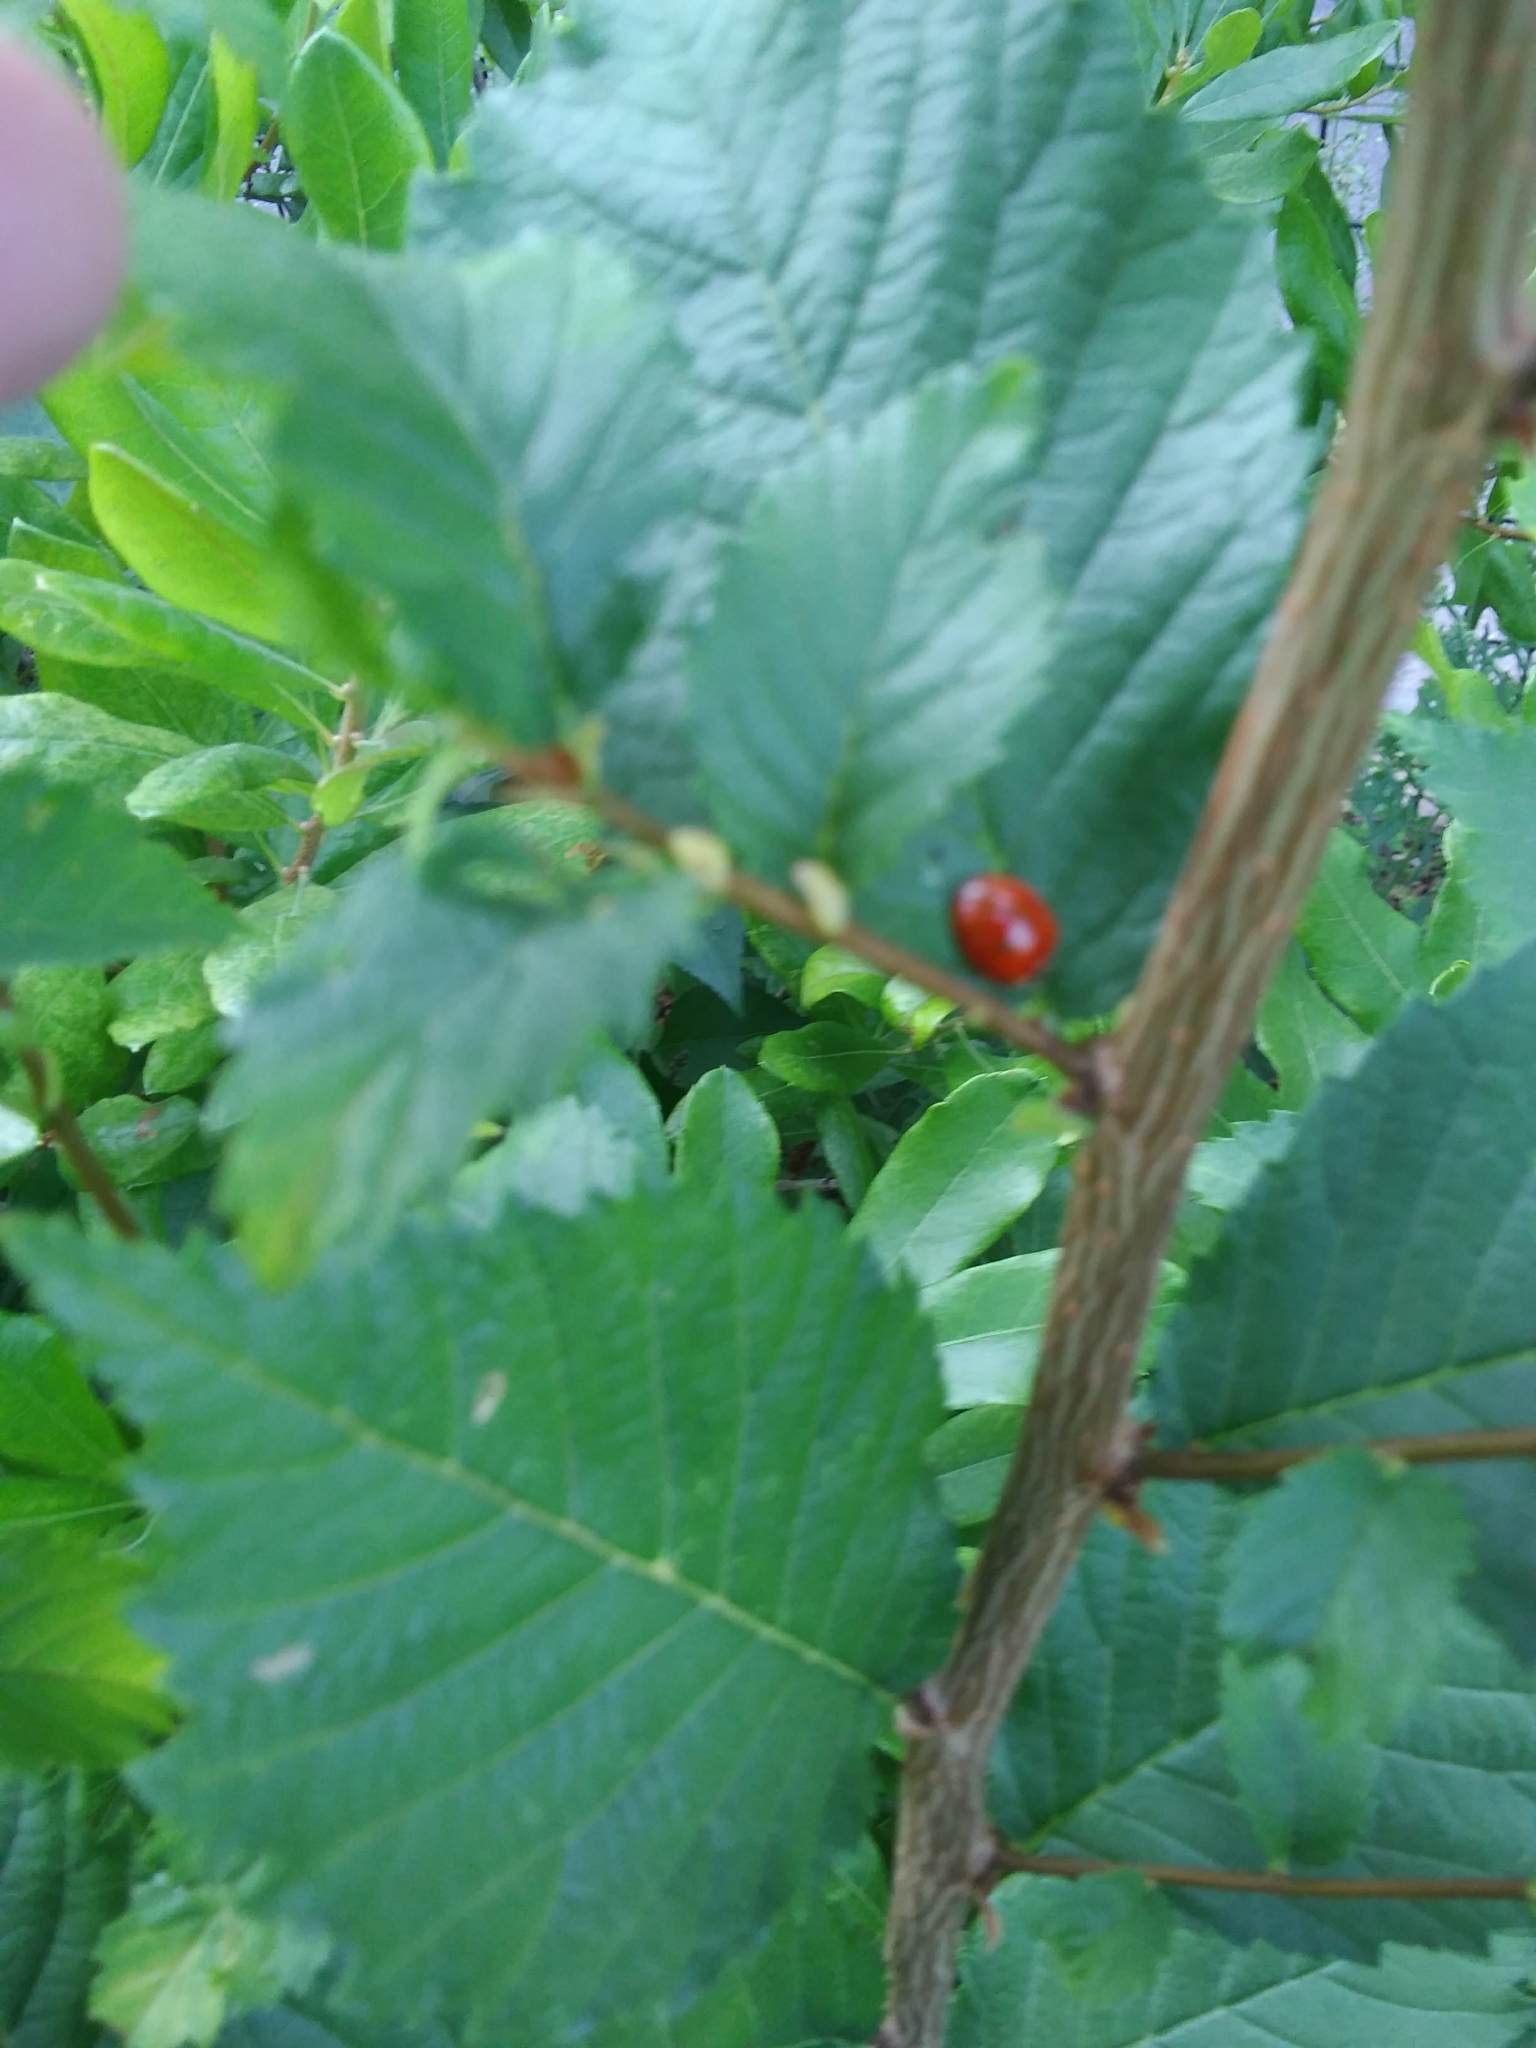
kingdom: Animalia
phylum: Arthropoda
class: Insecta
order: Coleoptera
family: Coccinellidae
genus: Harmonia
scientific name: Harmonia axyridis
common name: Harlequin ladybird
